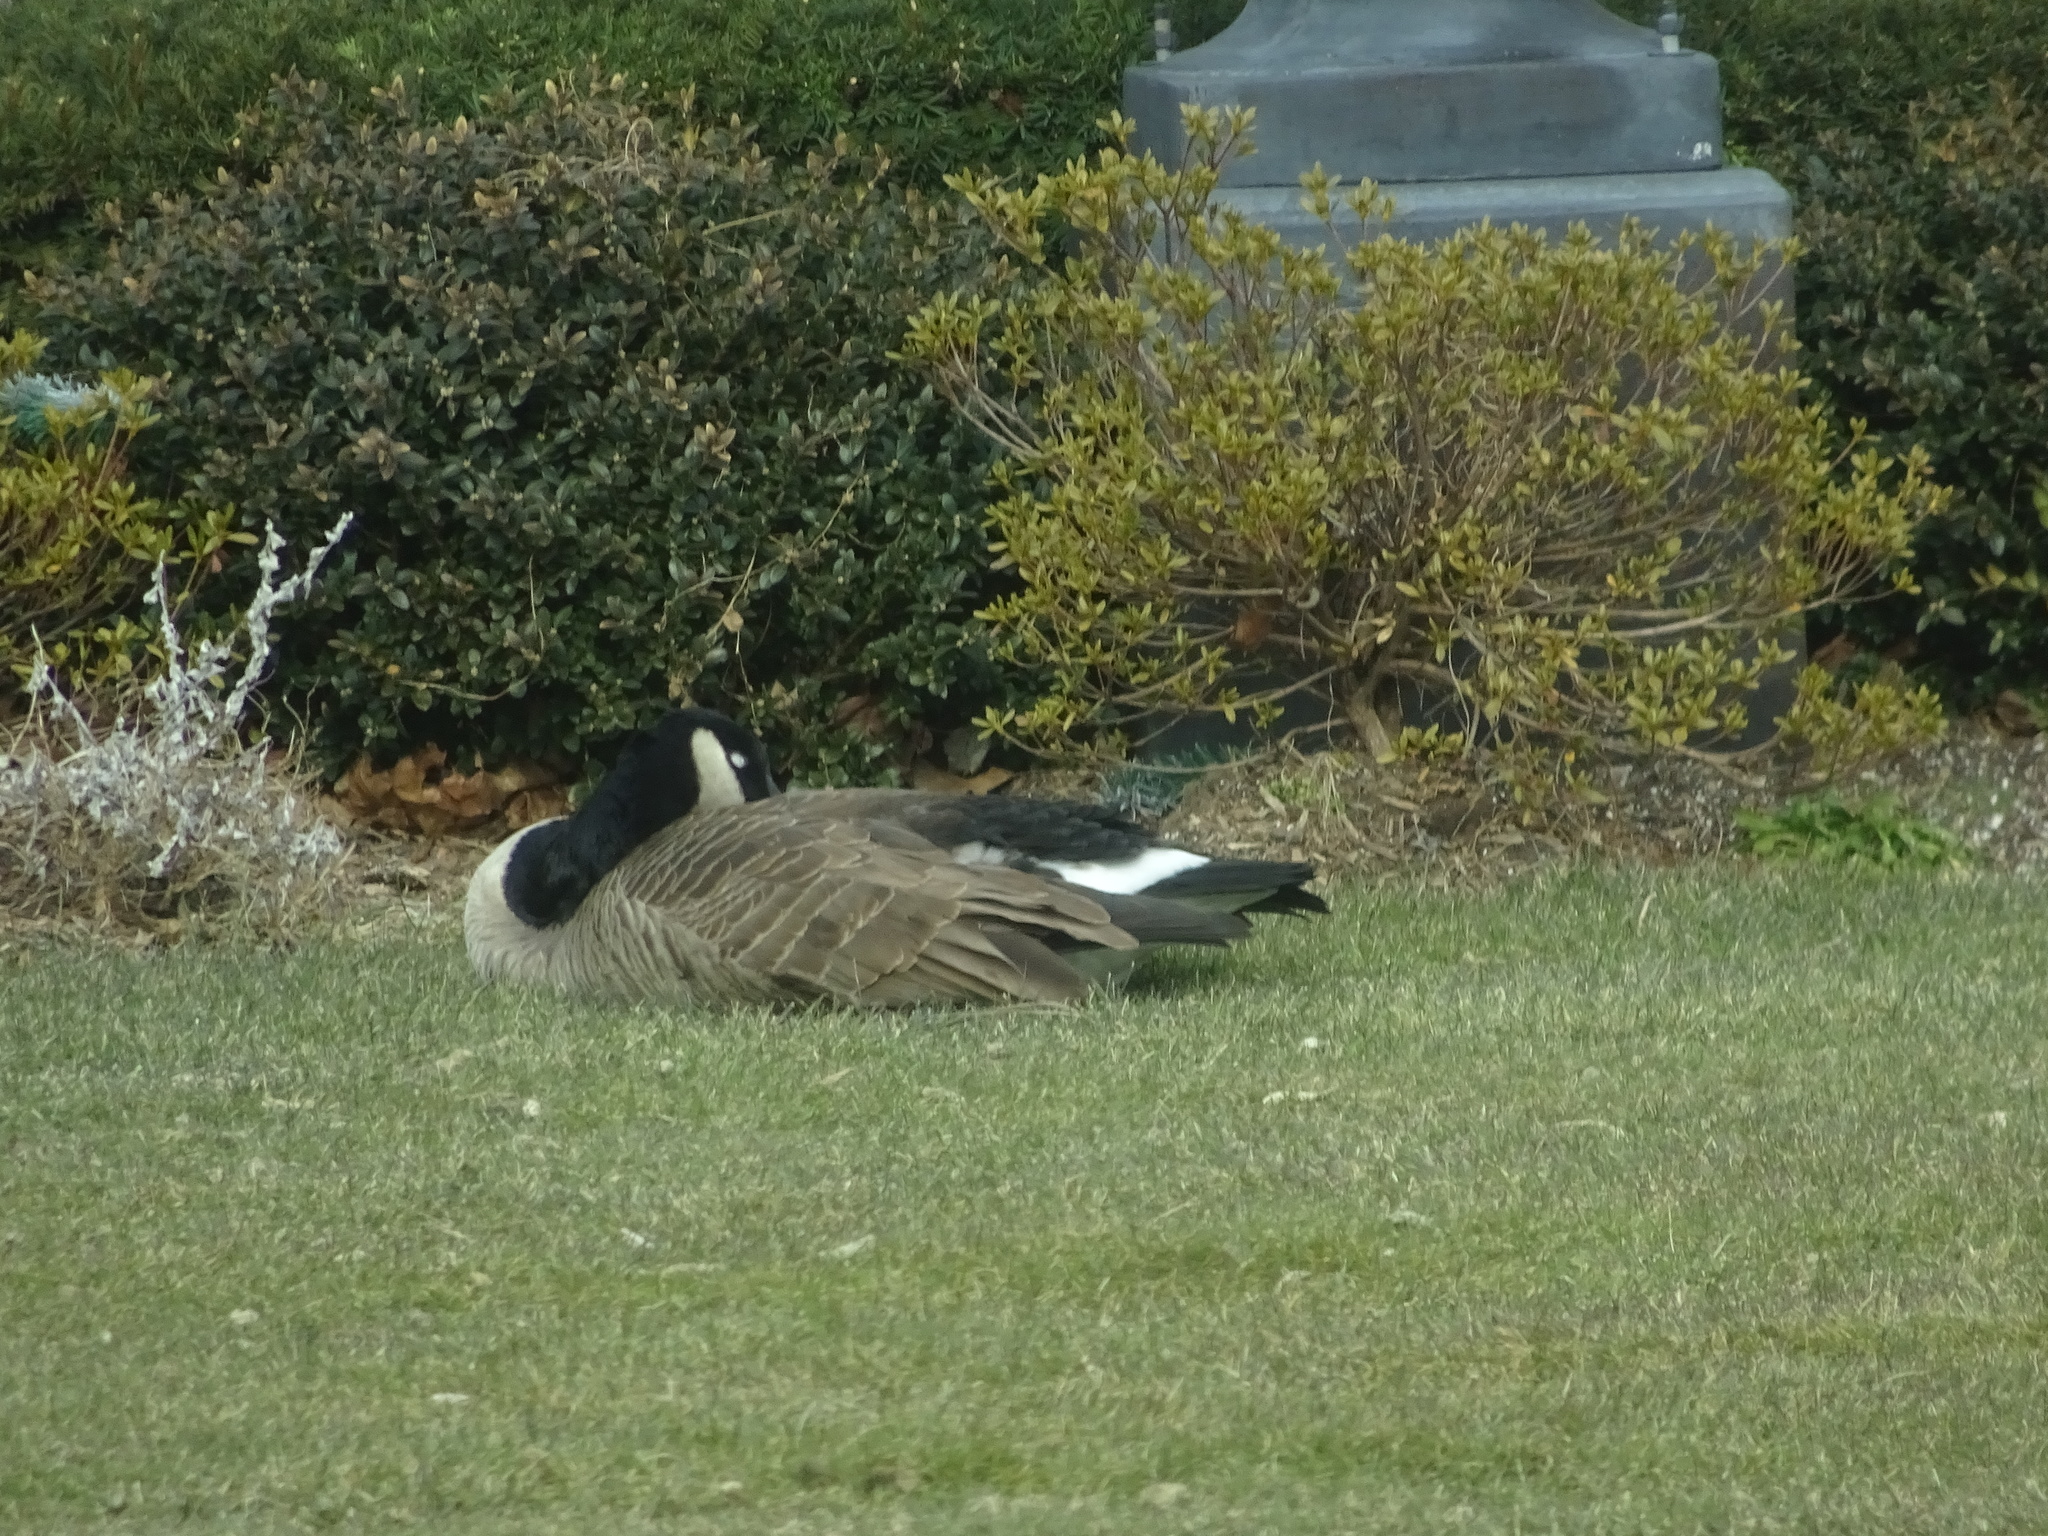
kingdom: Animalia
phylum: Chordata
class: Aves
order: Anseriformes
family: Anatidae
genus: Branta
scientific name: Branta canadensis
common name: Canada goose
